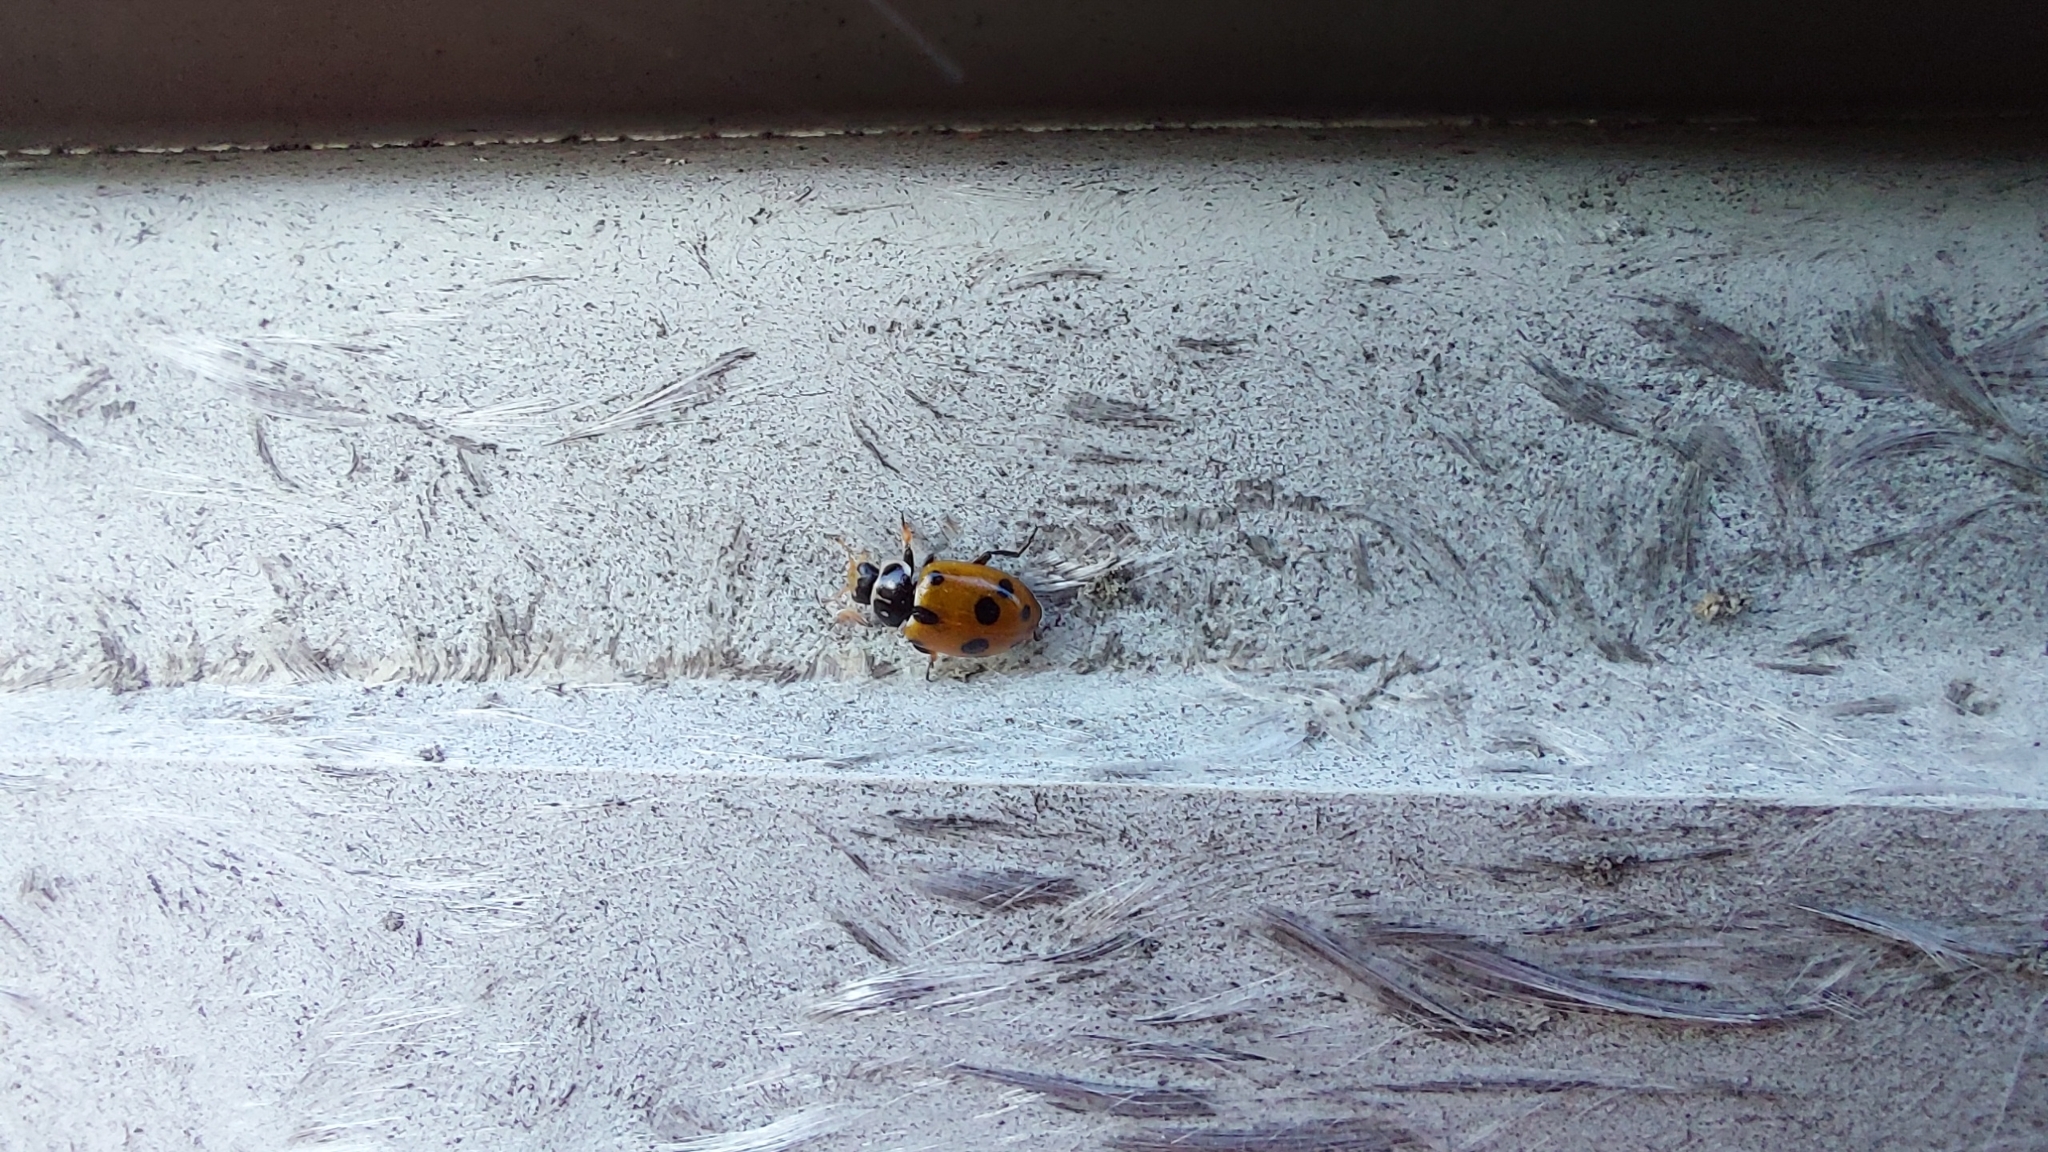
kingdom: Animalia
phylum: Arthropoda
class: Insecta
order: Coleoptera
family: Coccinellidae
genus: Hippodamia
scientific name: Hippodamia variegata
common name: Ladybird beetle
